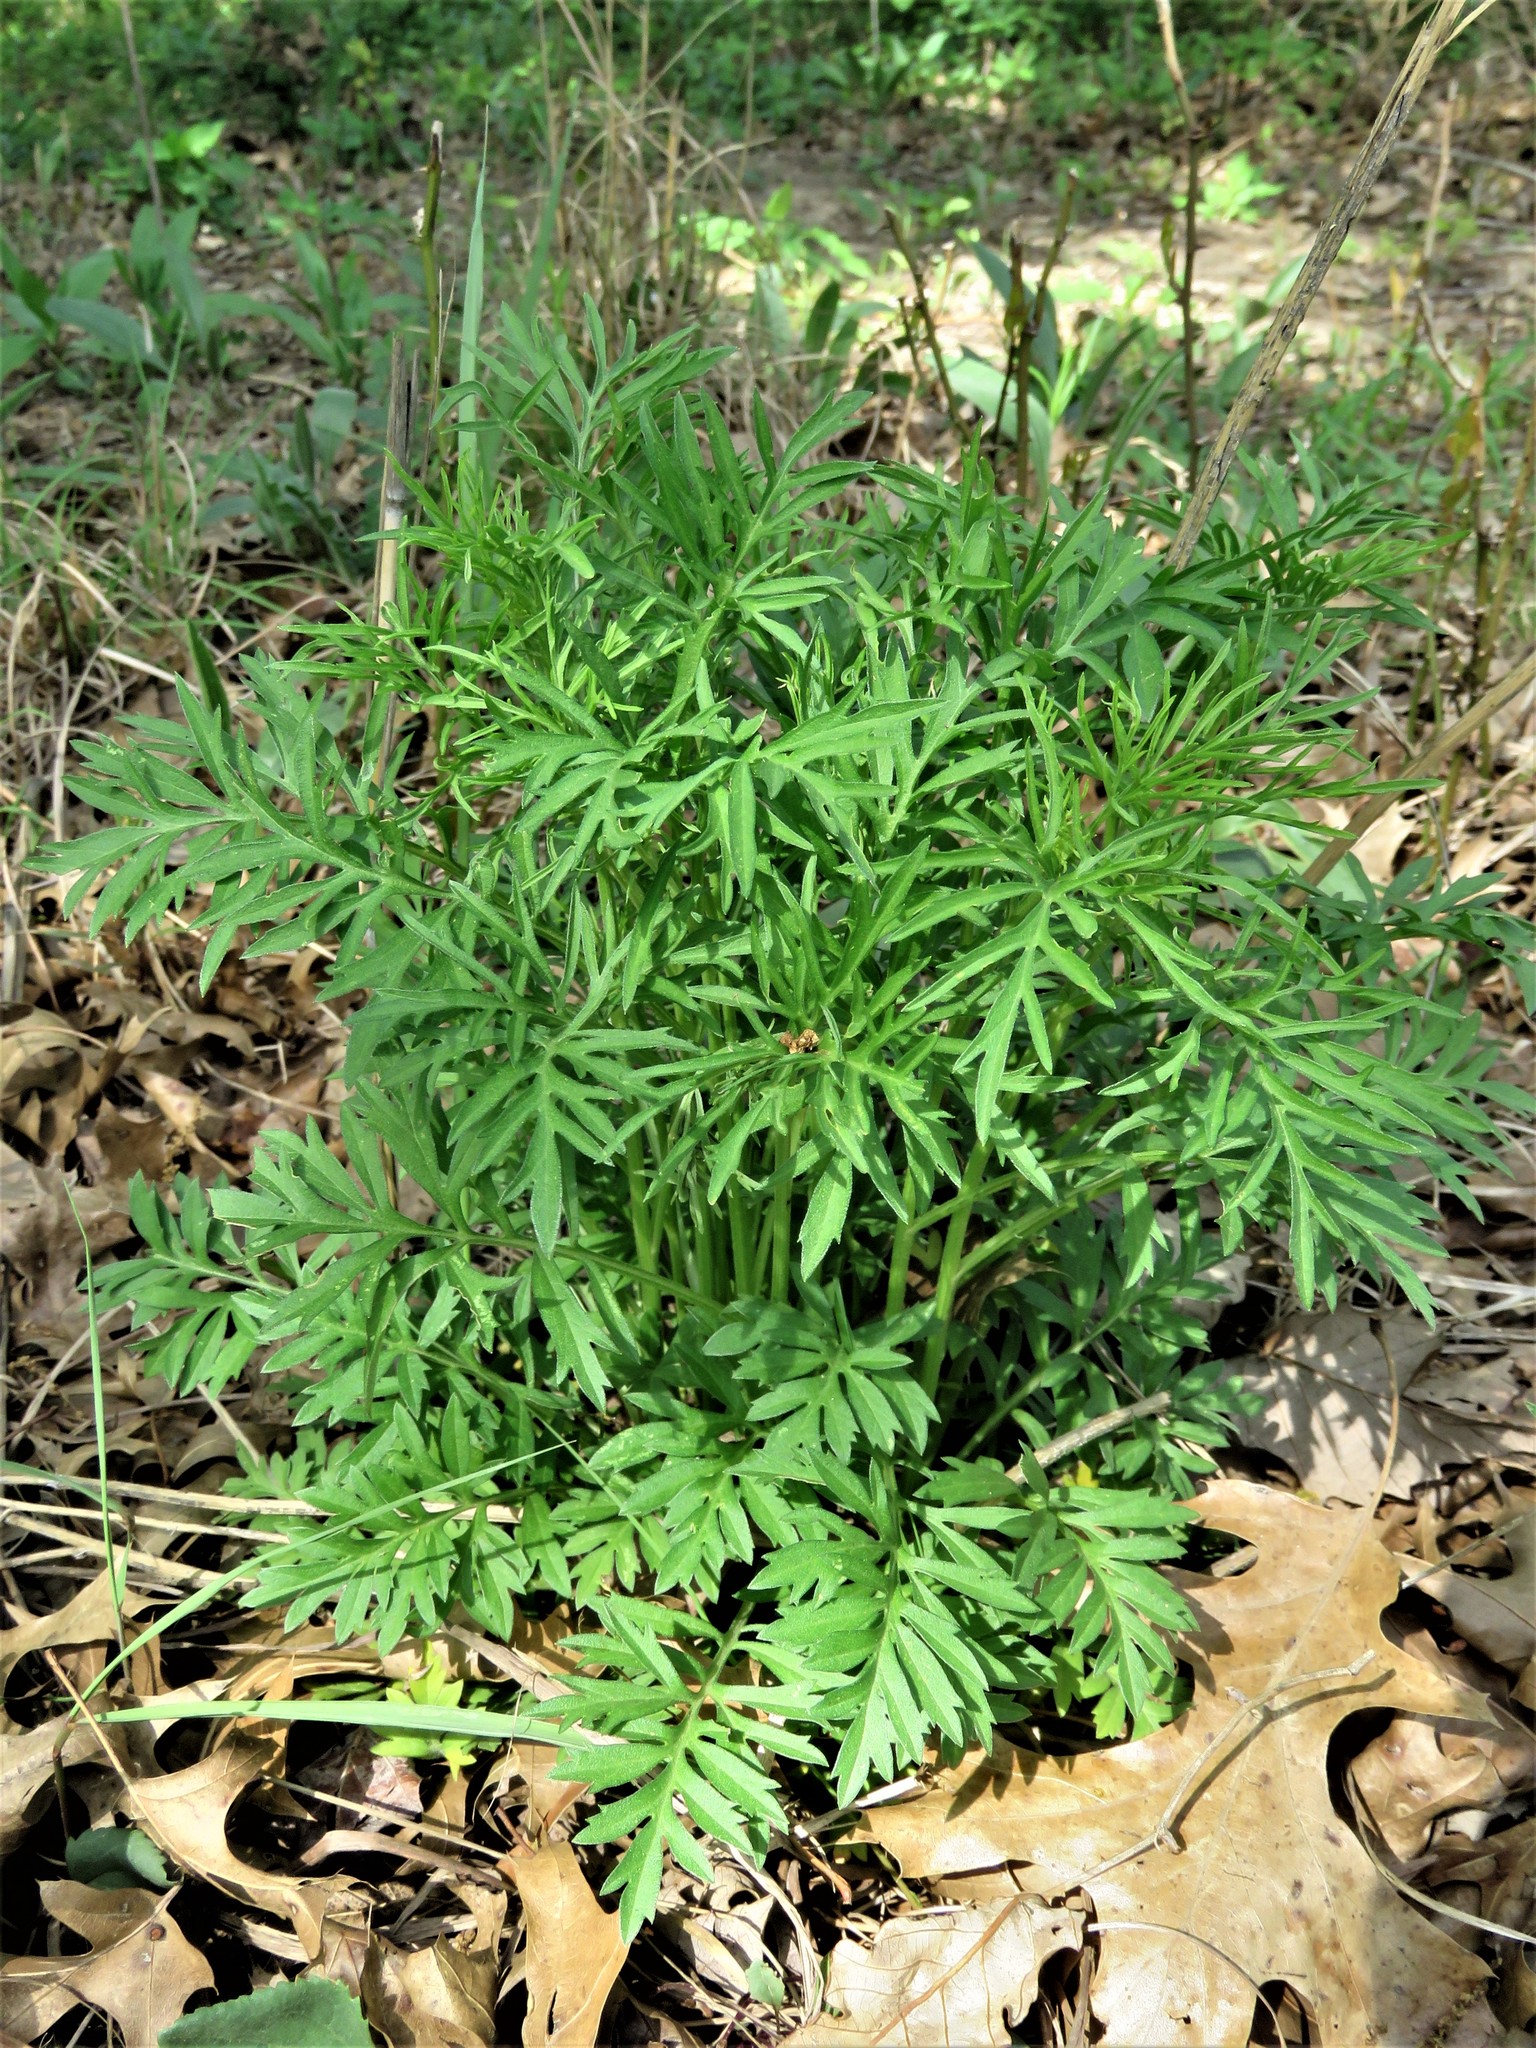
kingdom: Plantae
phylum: Tracheophyta
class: Magnoliopsida
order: Asterales
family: Asteraceae
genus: Ratibida
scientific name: Ratibida columnifera
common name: Prairie coneflower
